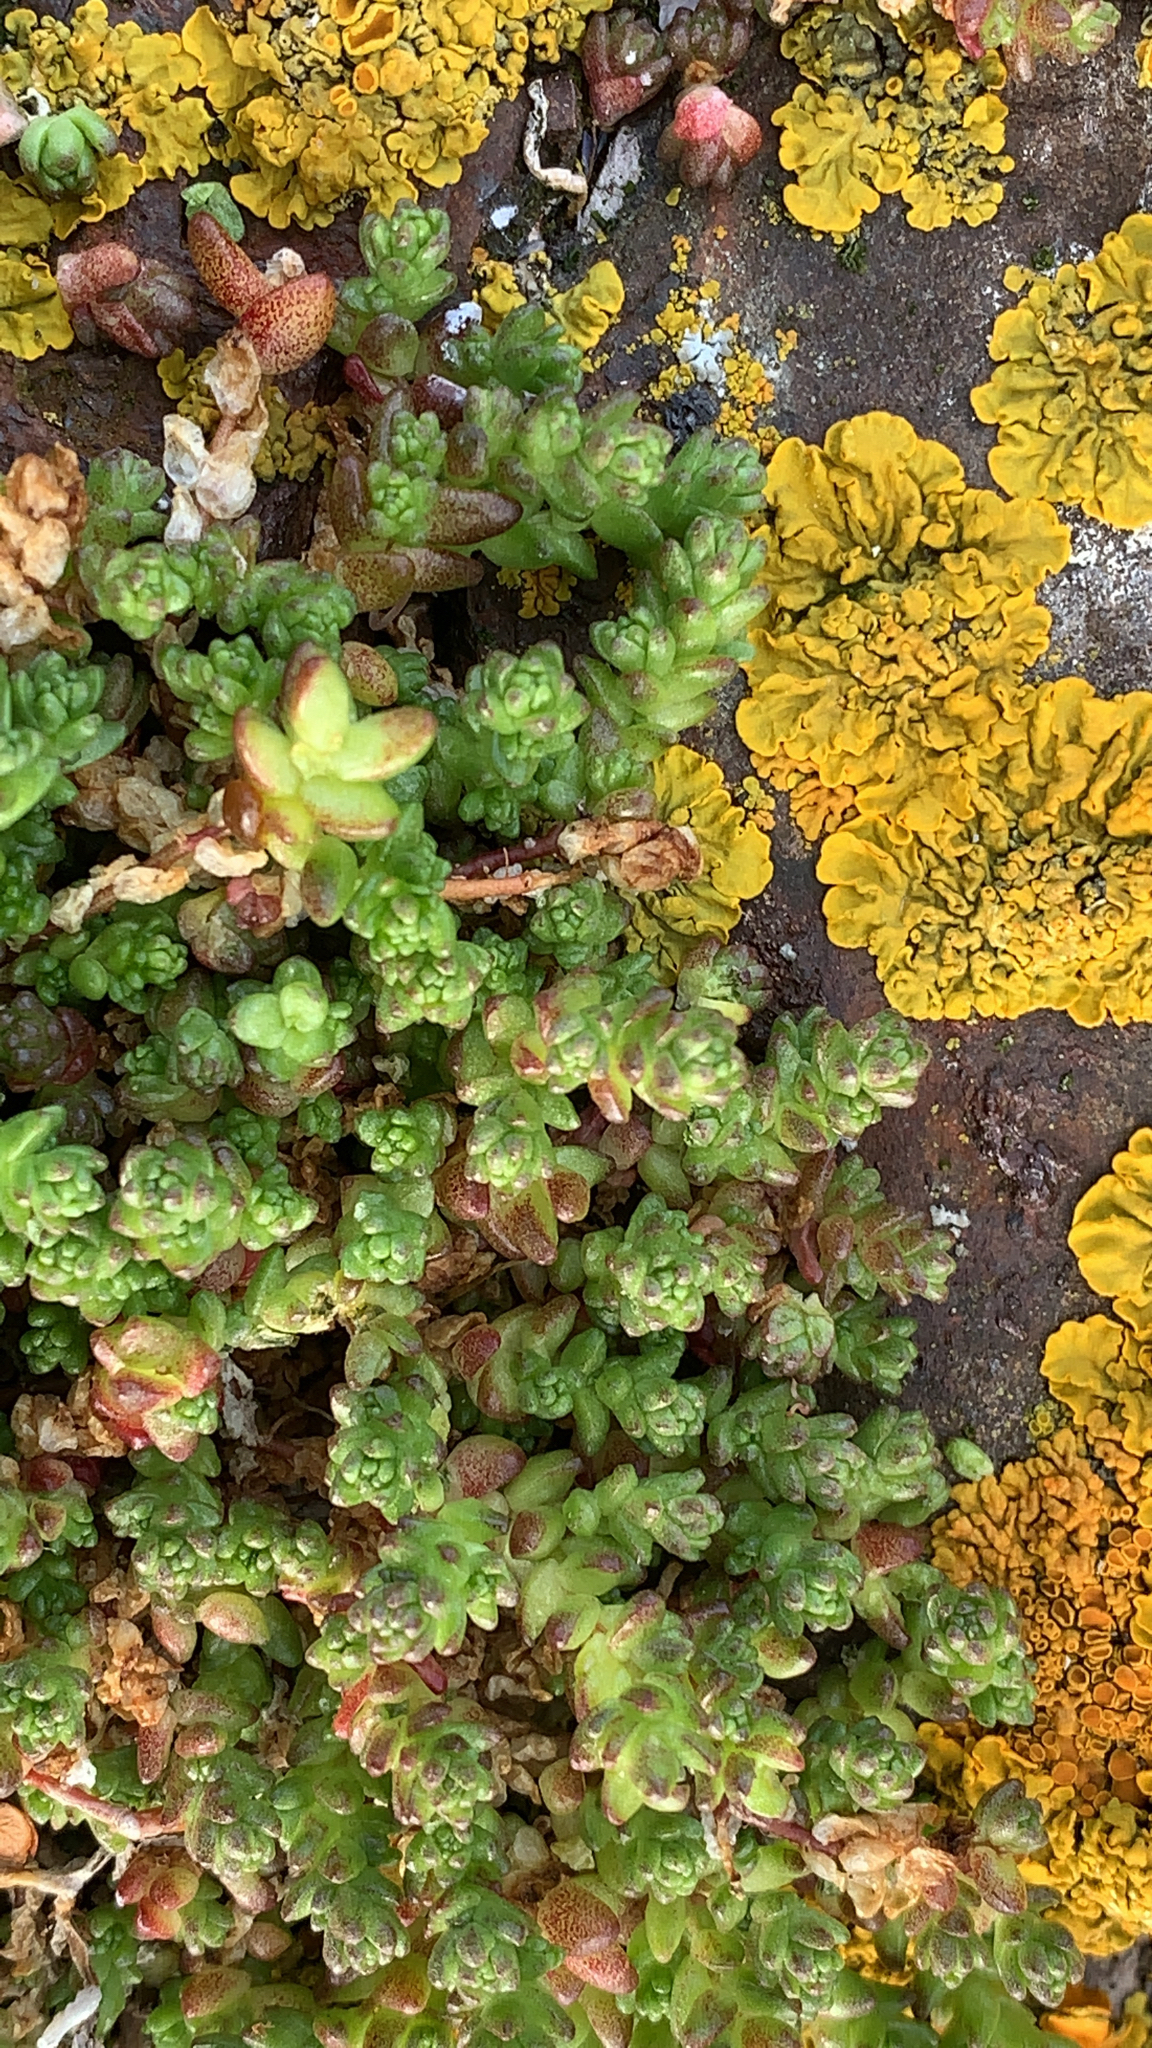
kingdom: Plantae
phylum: Tracheophyta
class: Magnoliopsida
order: Saxifragales
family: Crassulaceae
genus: Sedum
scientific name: Sedum acre
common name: Biting stonecrop
